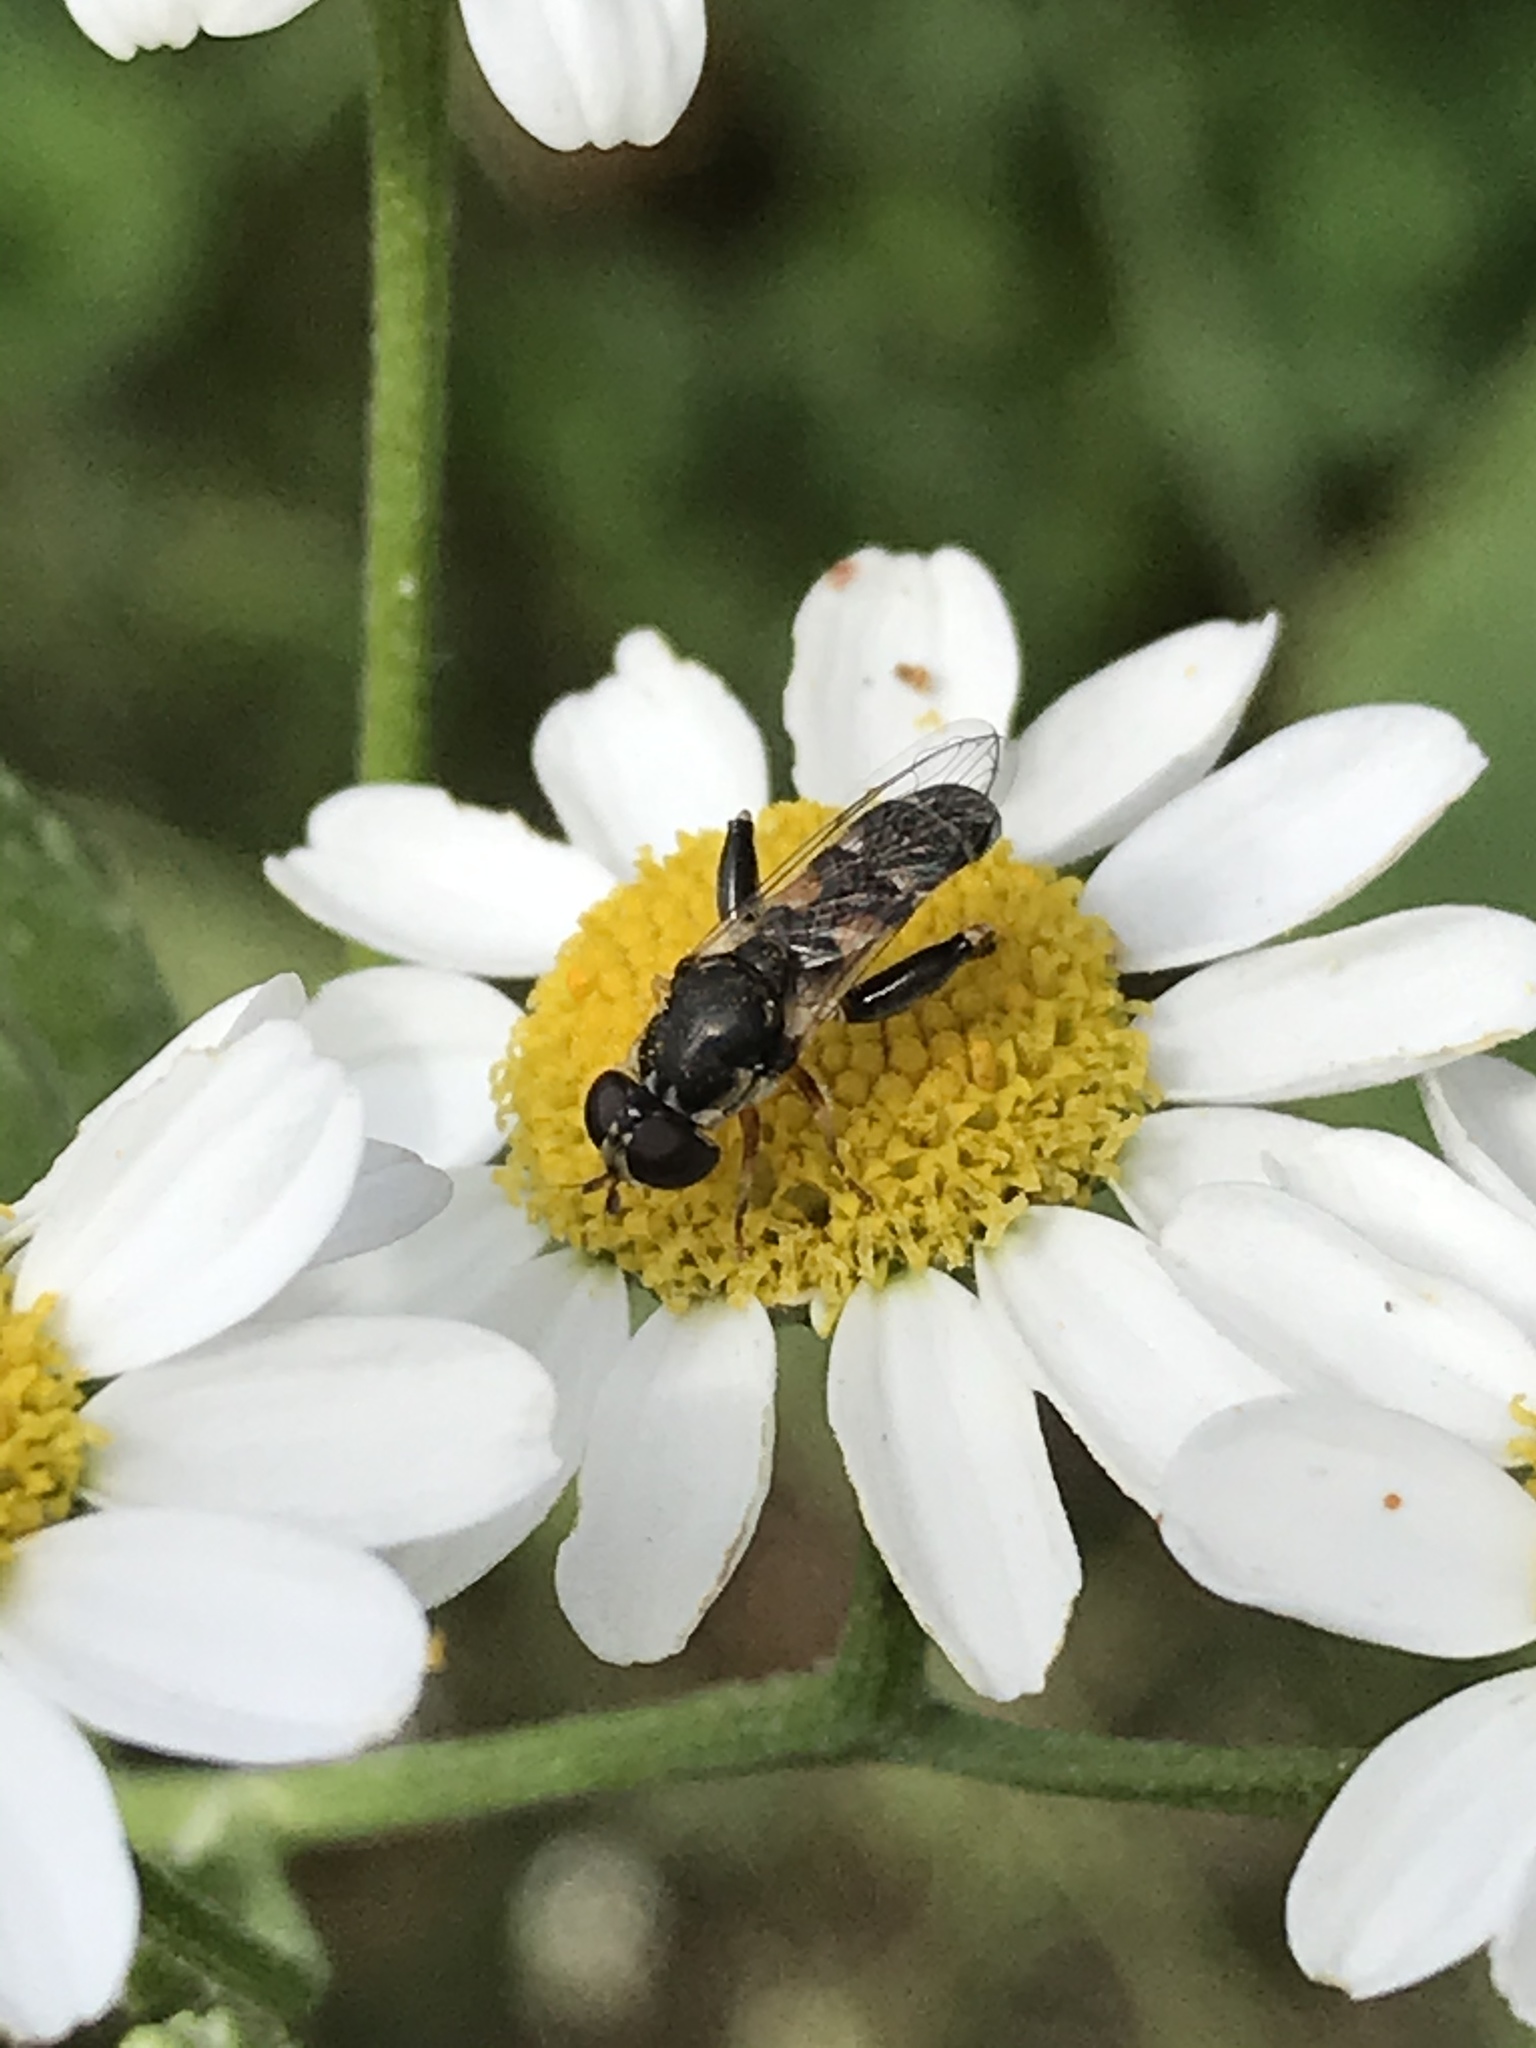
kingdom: Animalia
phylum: Arthropoda
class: Insecta
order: Diptera
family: Syrphidae
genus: Syritta
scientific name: Syritta pipiens
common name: Hover fly
